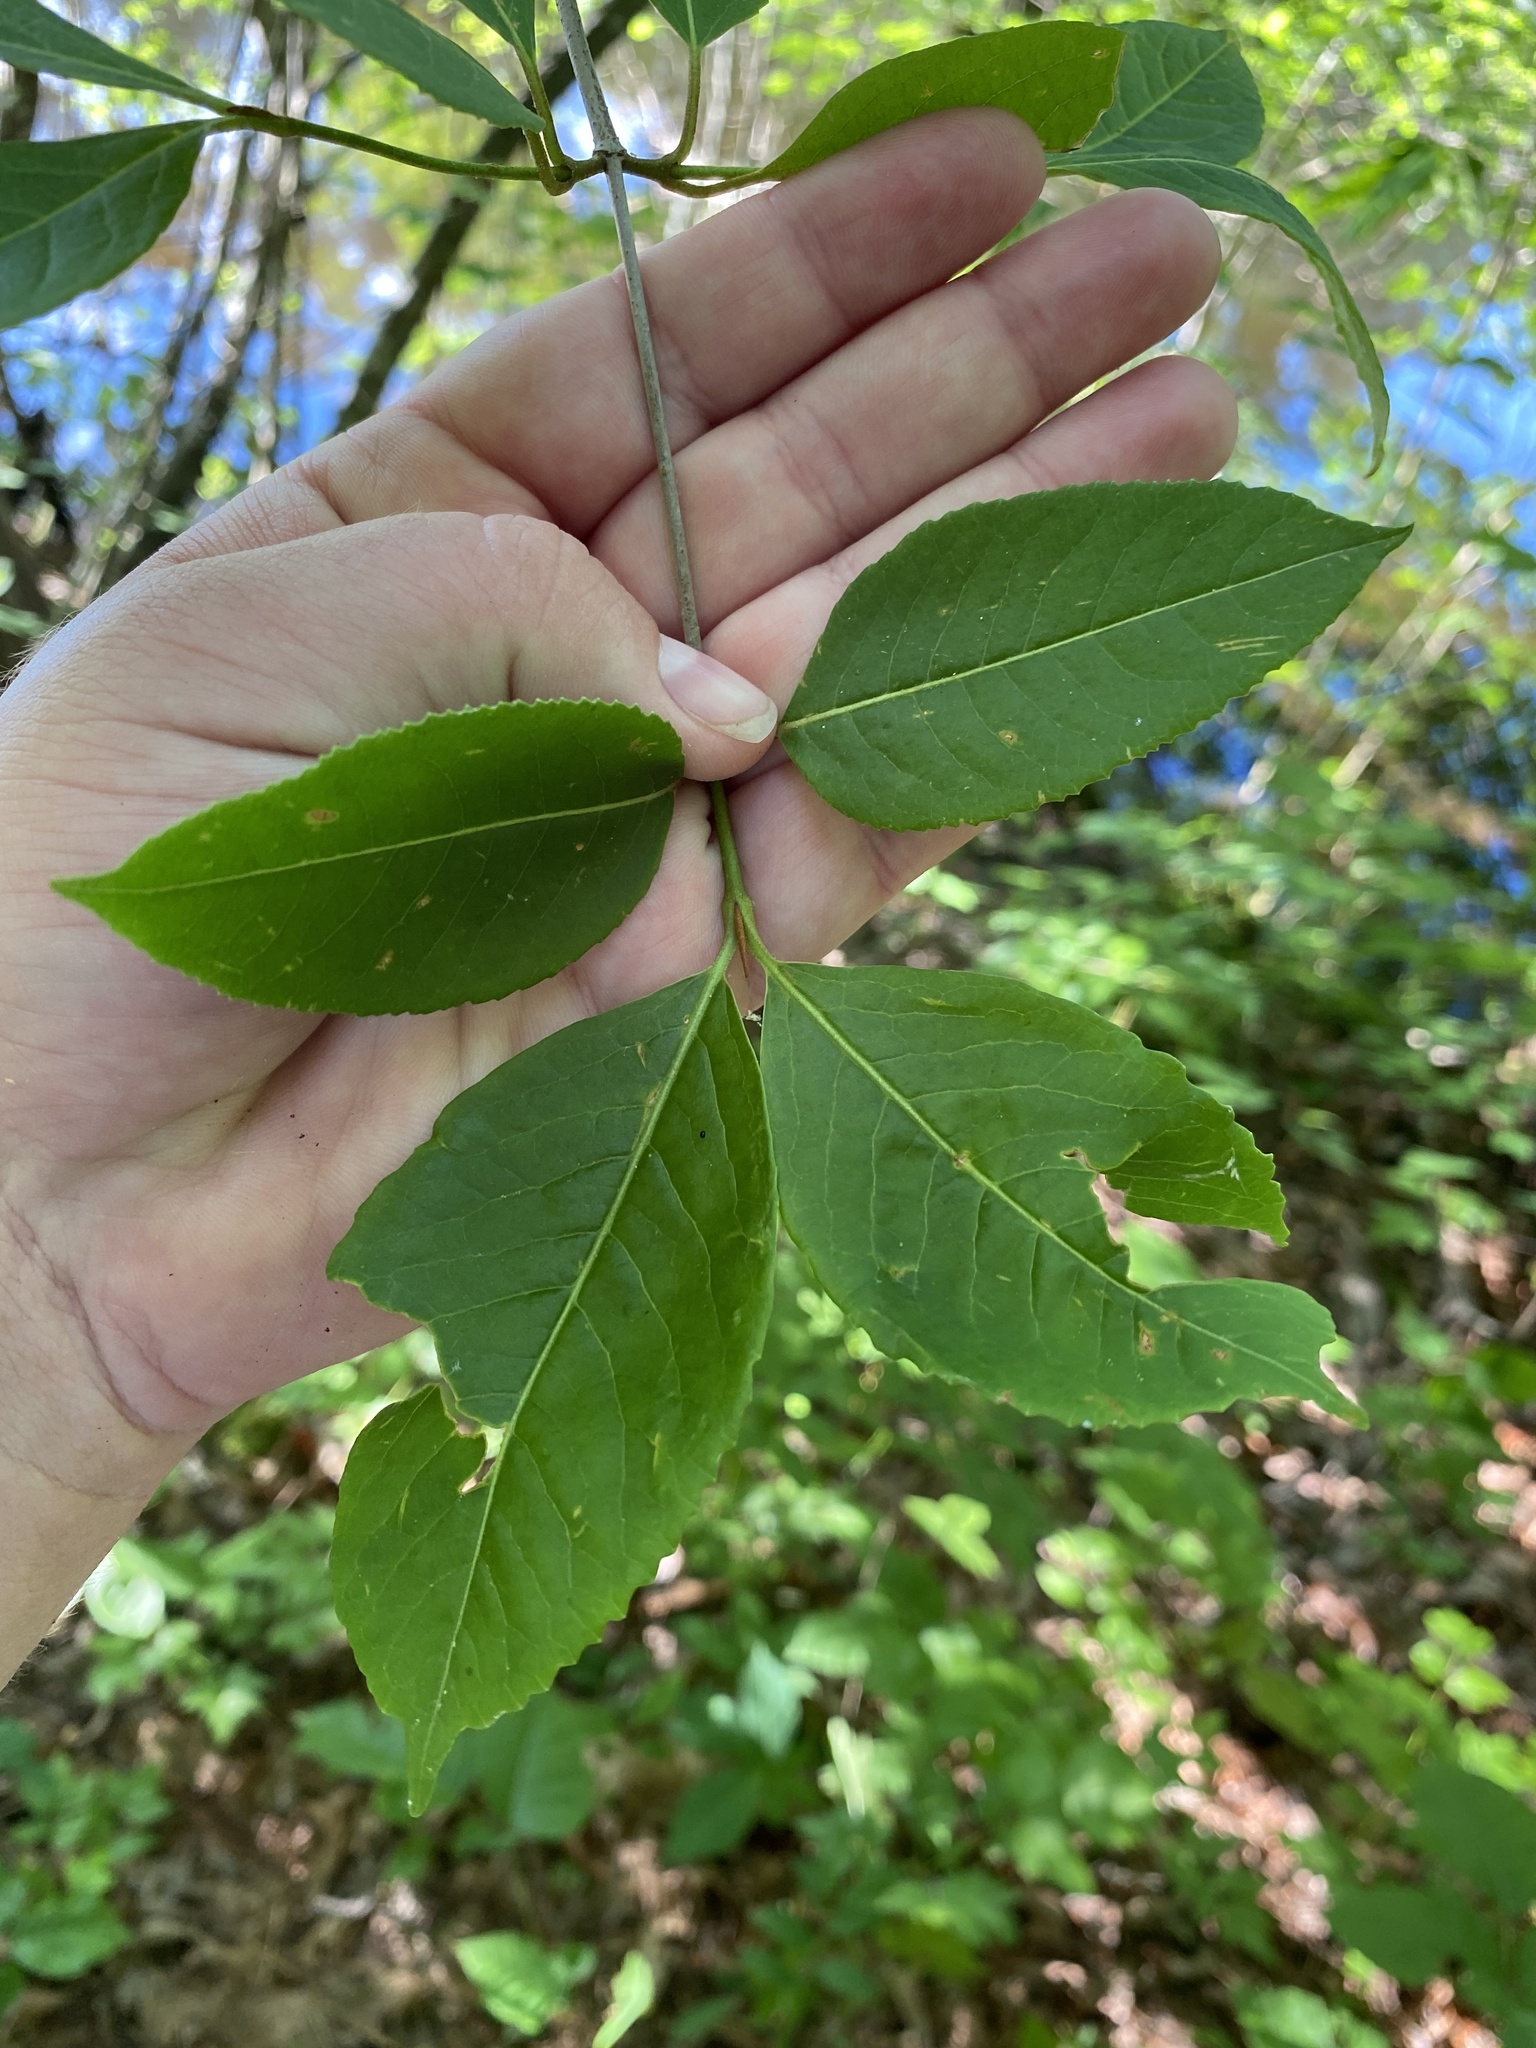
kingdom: Plantae
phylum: Tracheophyta
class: Magnoliopsida
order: Dipsacales
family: Viburnaceae
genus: Viburnum
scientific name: Viburnum cassinoides
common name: Swamp haw
